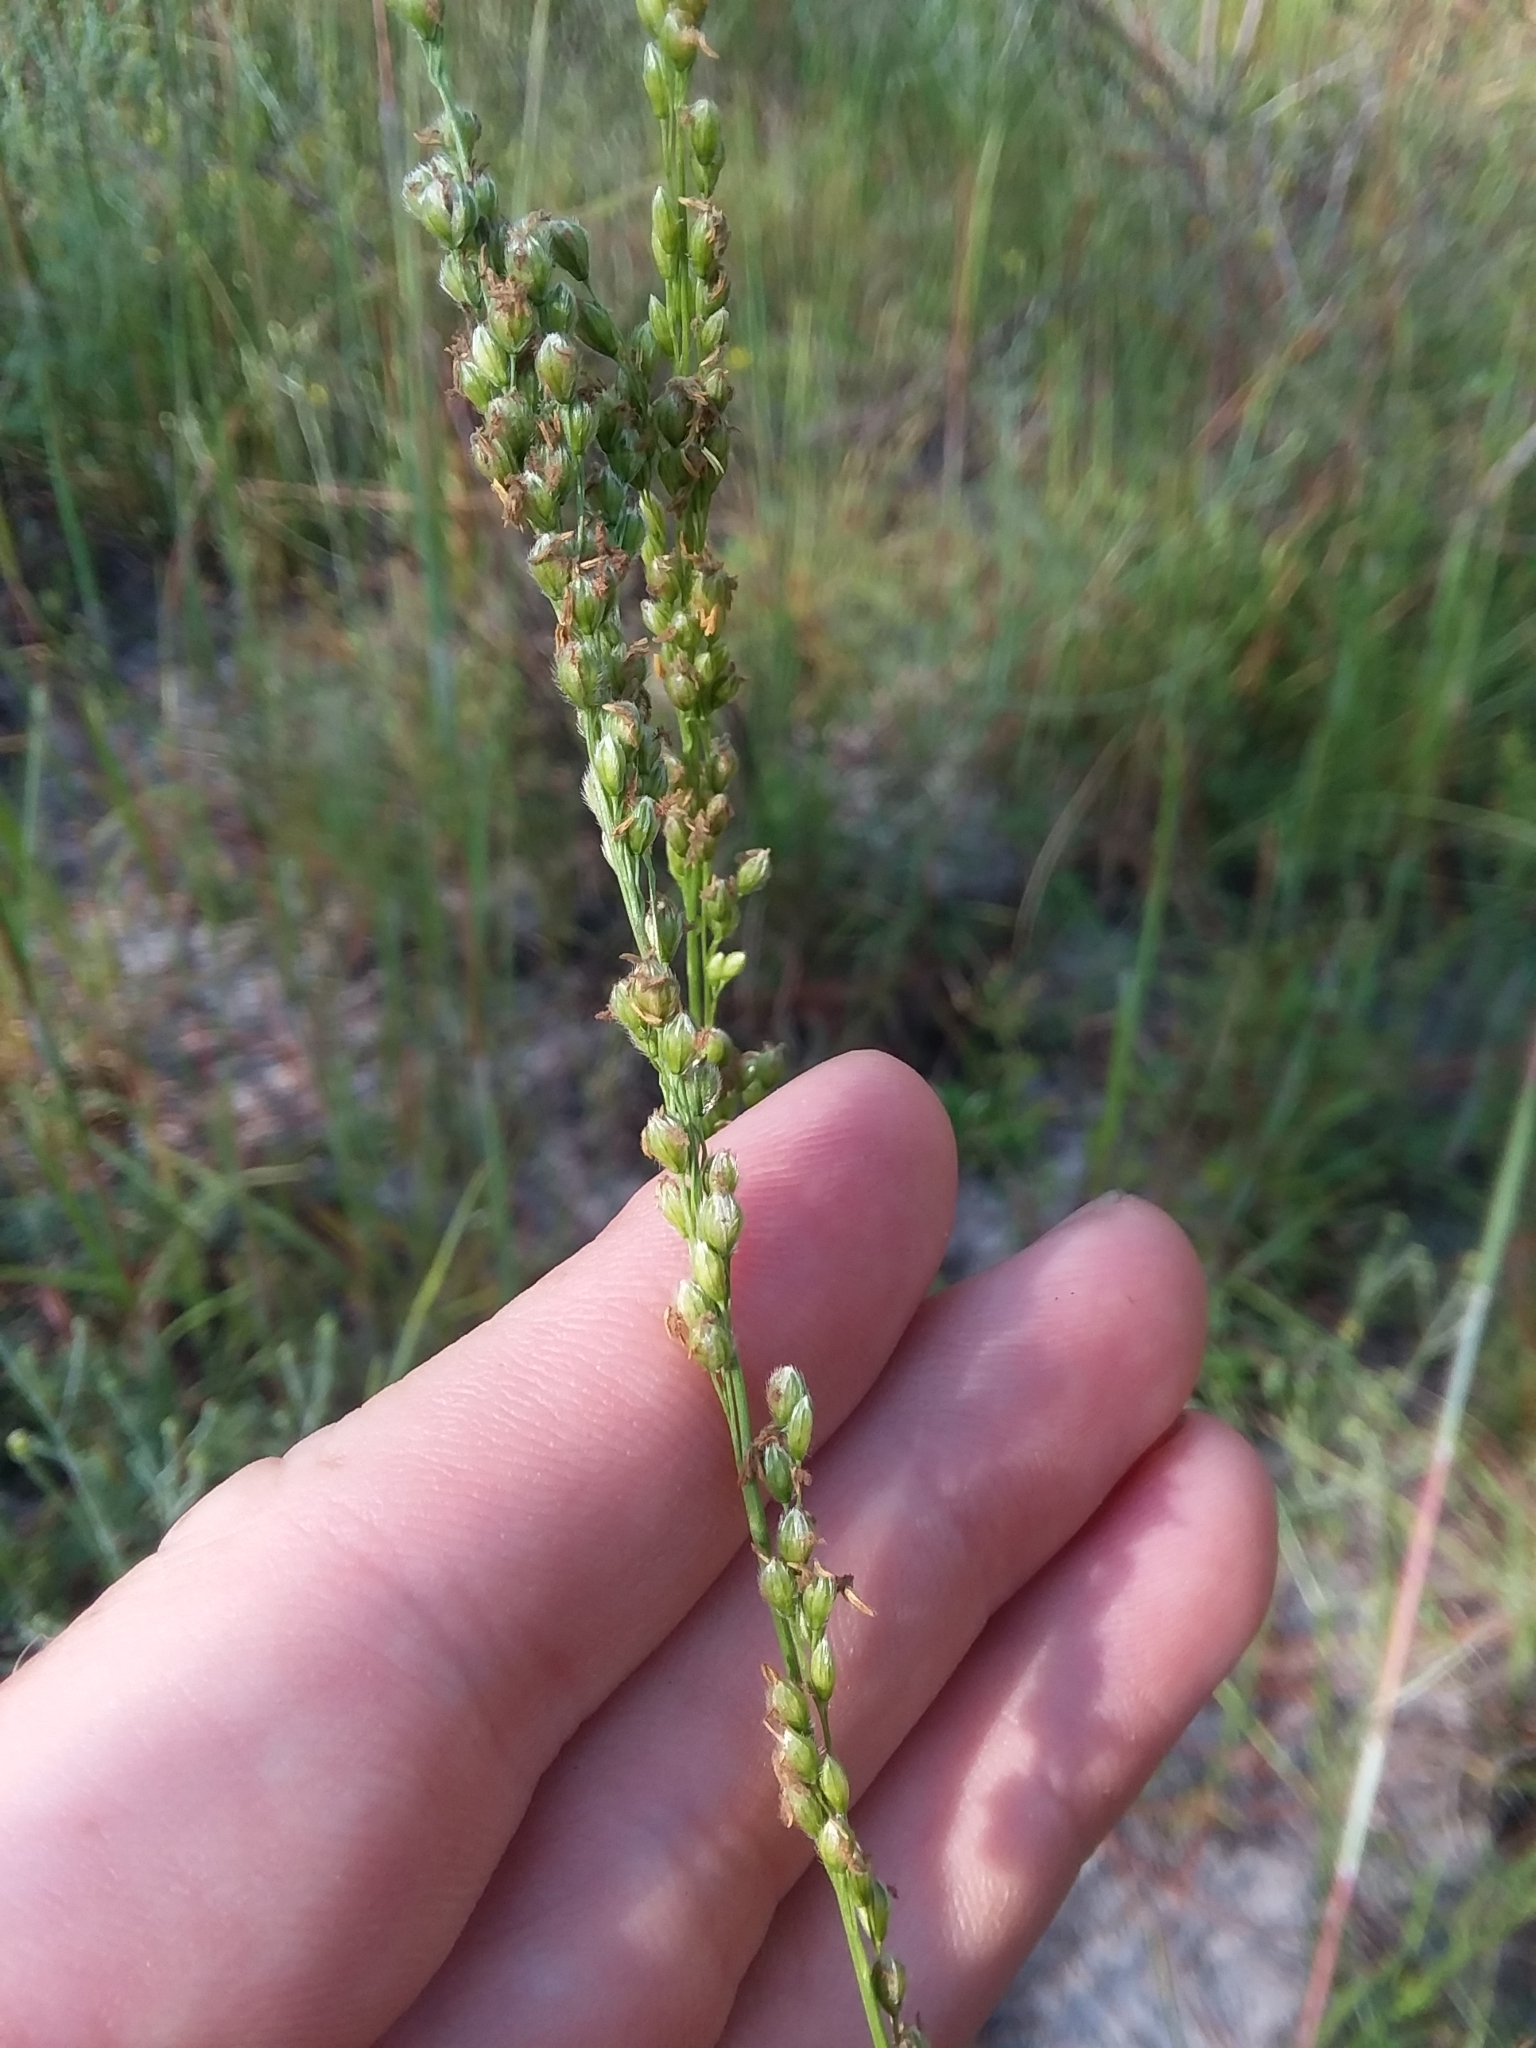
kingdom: Plantae
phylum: Tracheophyta
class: Liliopsida
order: Poales
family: Poaceae
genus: Anthenantia
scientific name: Anthenantia villosa
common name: Green silkyscale
